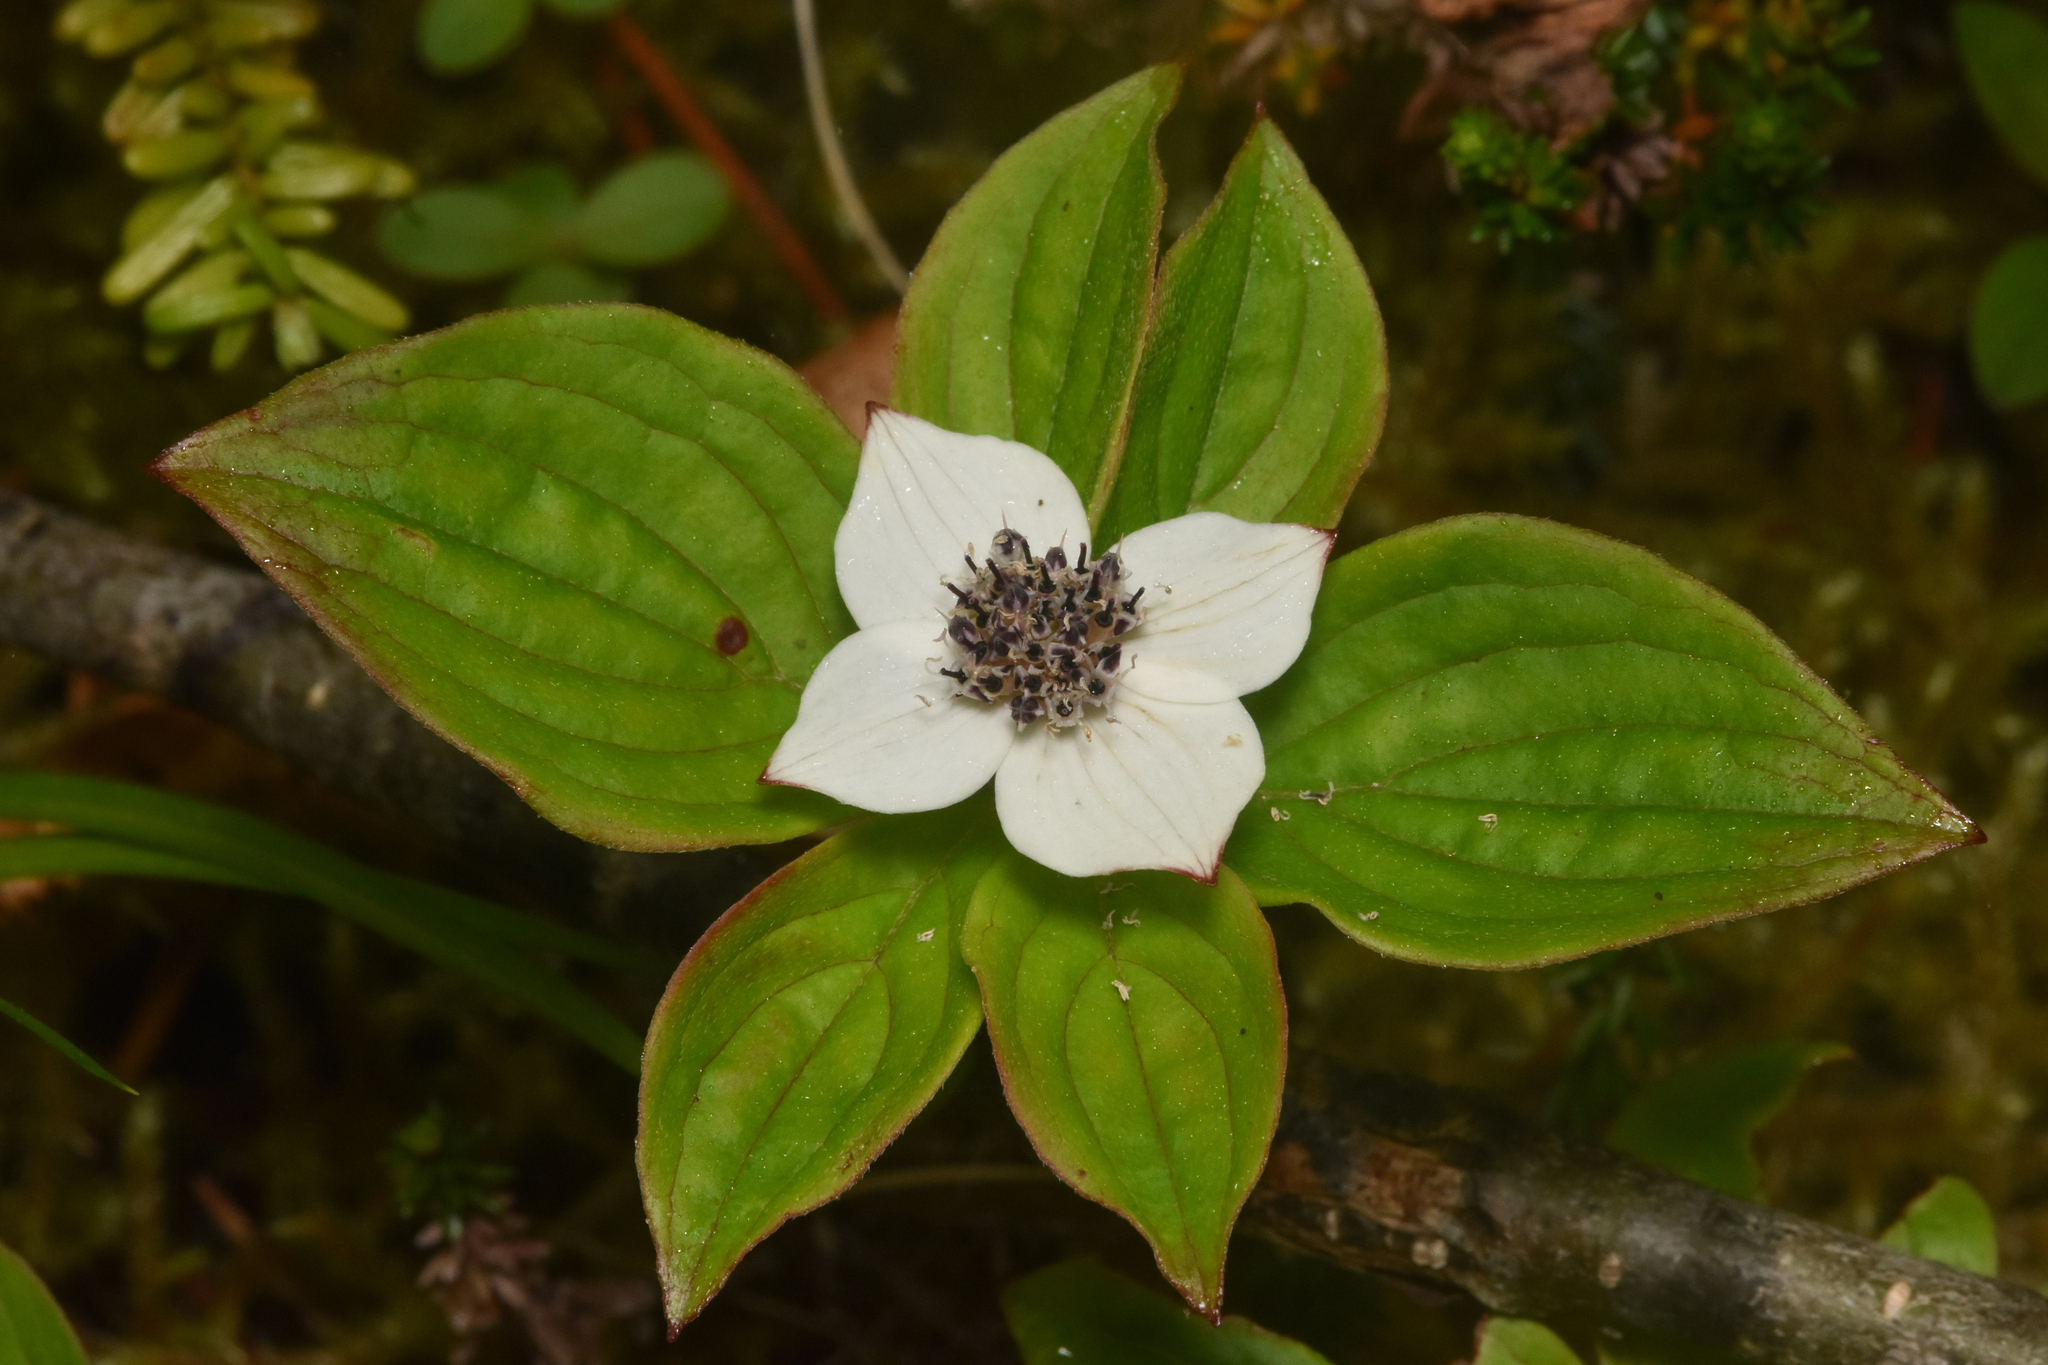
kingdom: Plantae
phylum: Tracheophyta
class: Magnoliopsida
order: Cornales
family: Cornaceae
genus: Cornus
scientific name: Cornus unalaschkensis
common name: Alaska bunchberry
